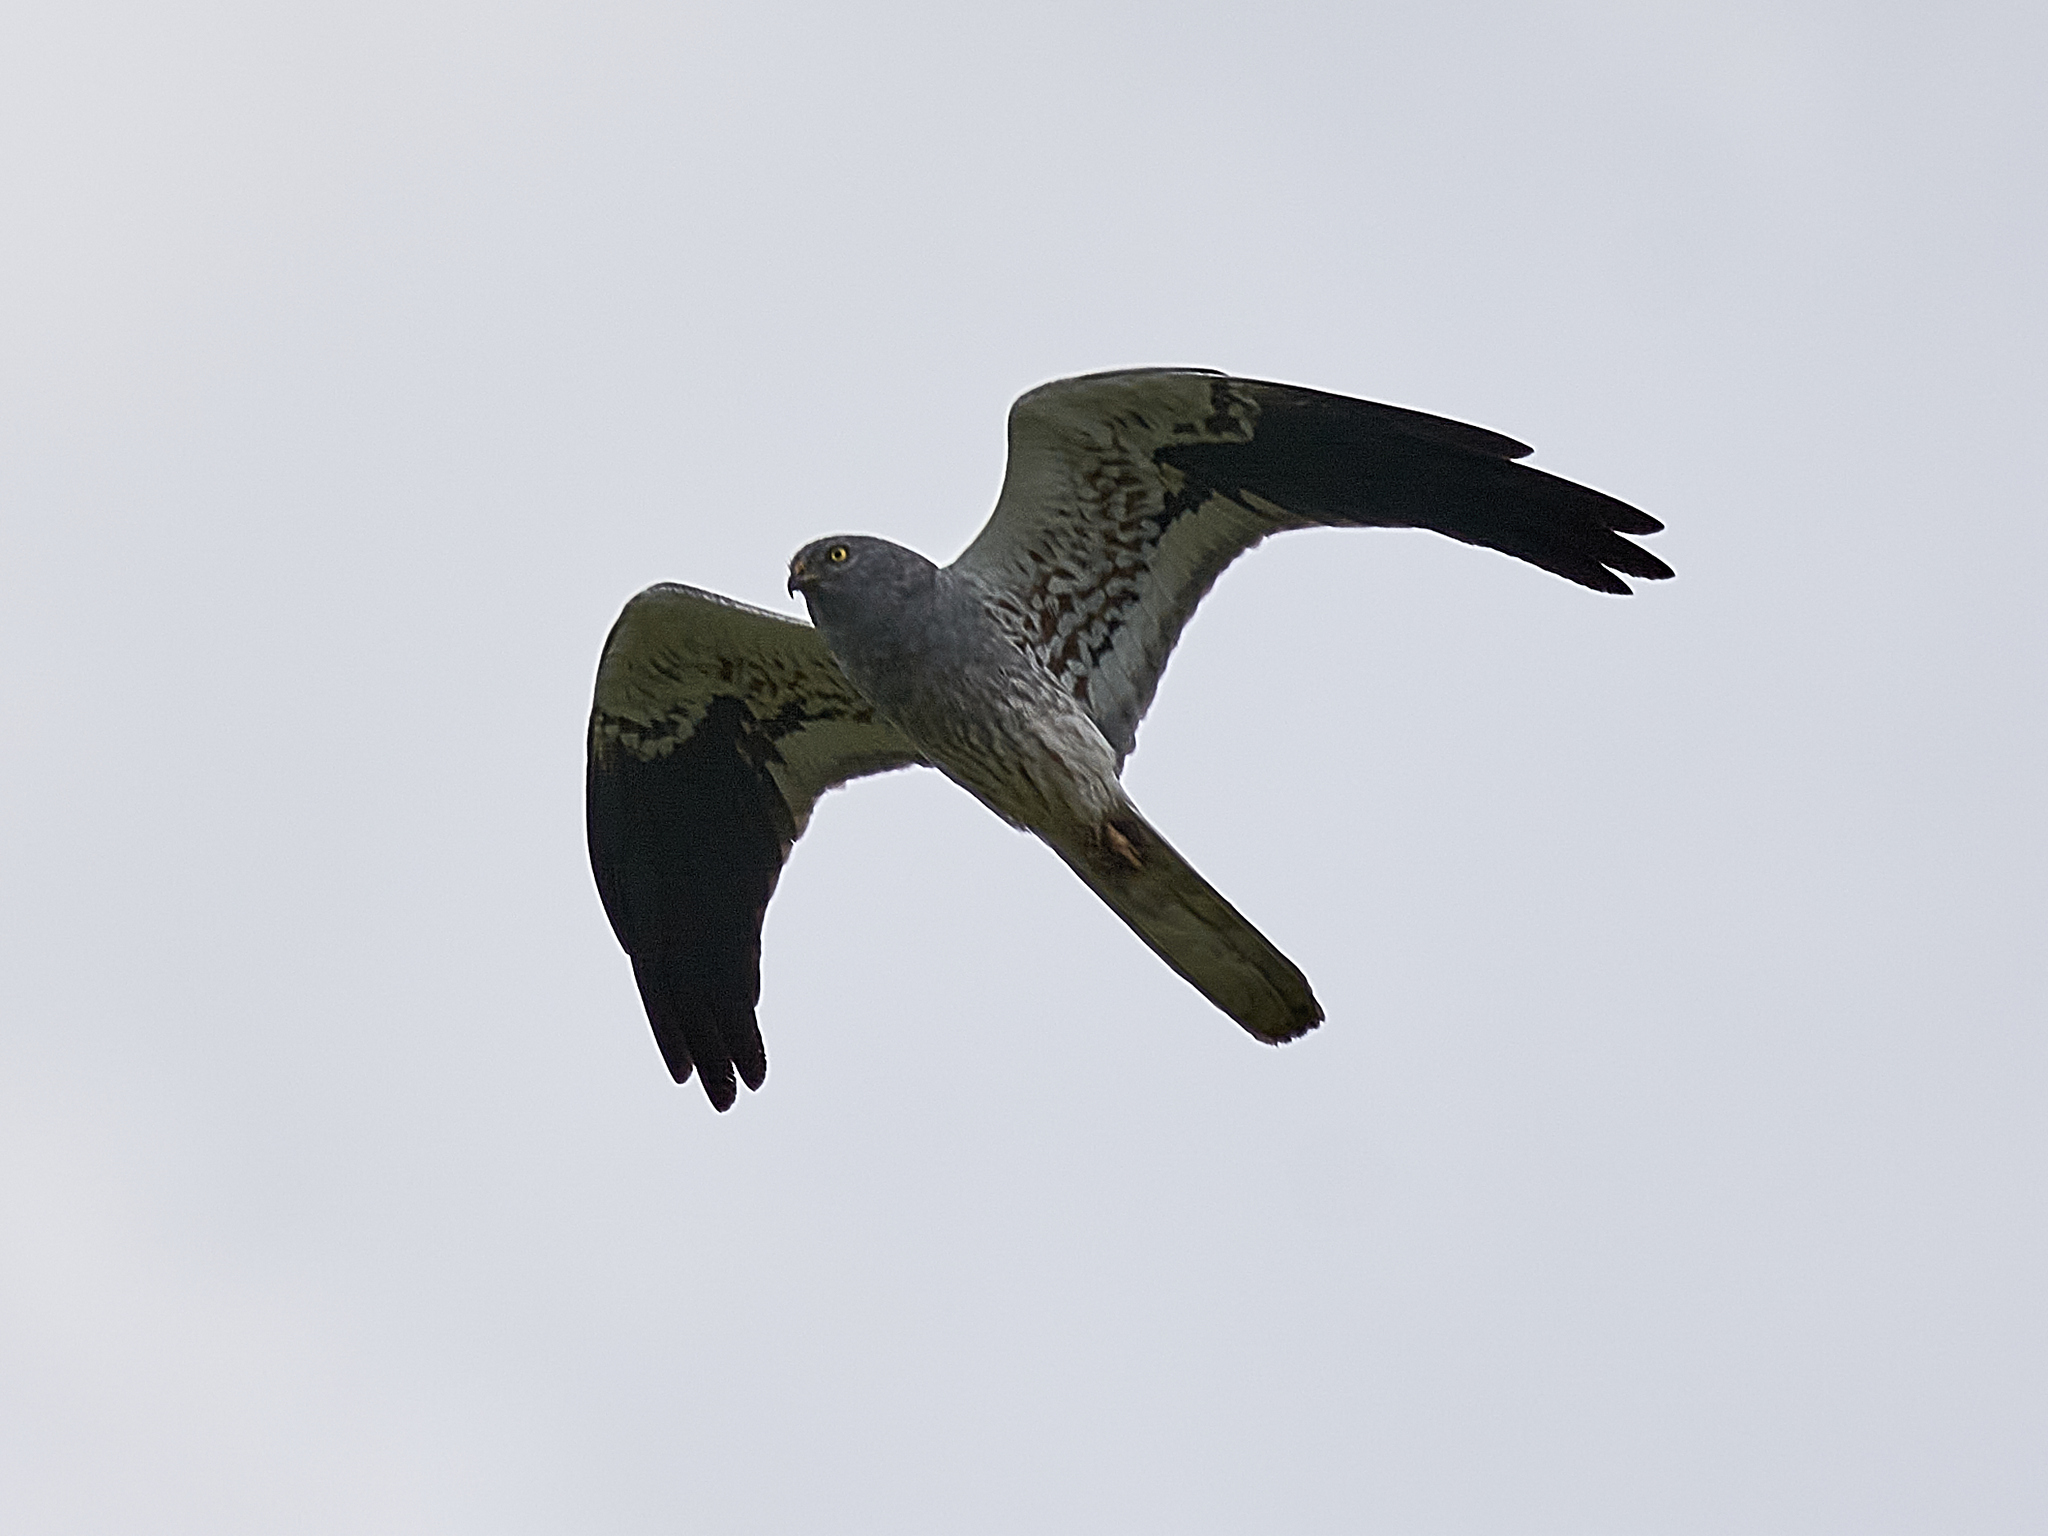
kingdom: Animalia
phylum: Chordata
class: Aves
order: Accipitriformes
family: Accipitridae
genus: Circus
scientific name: Circus pygargus
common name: Montagu's harrier
